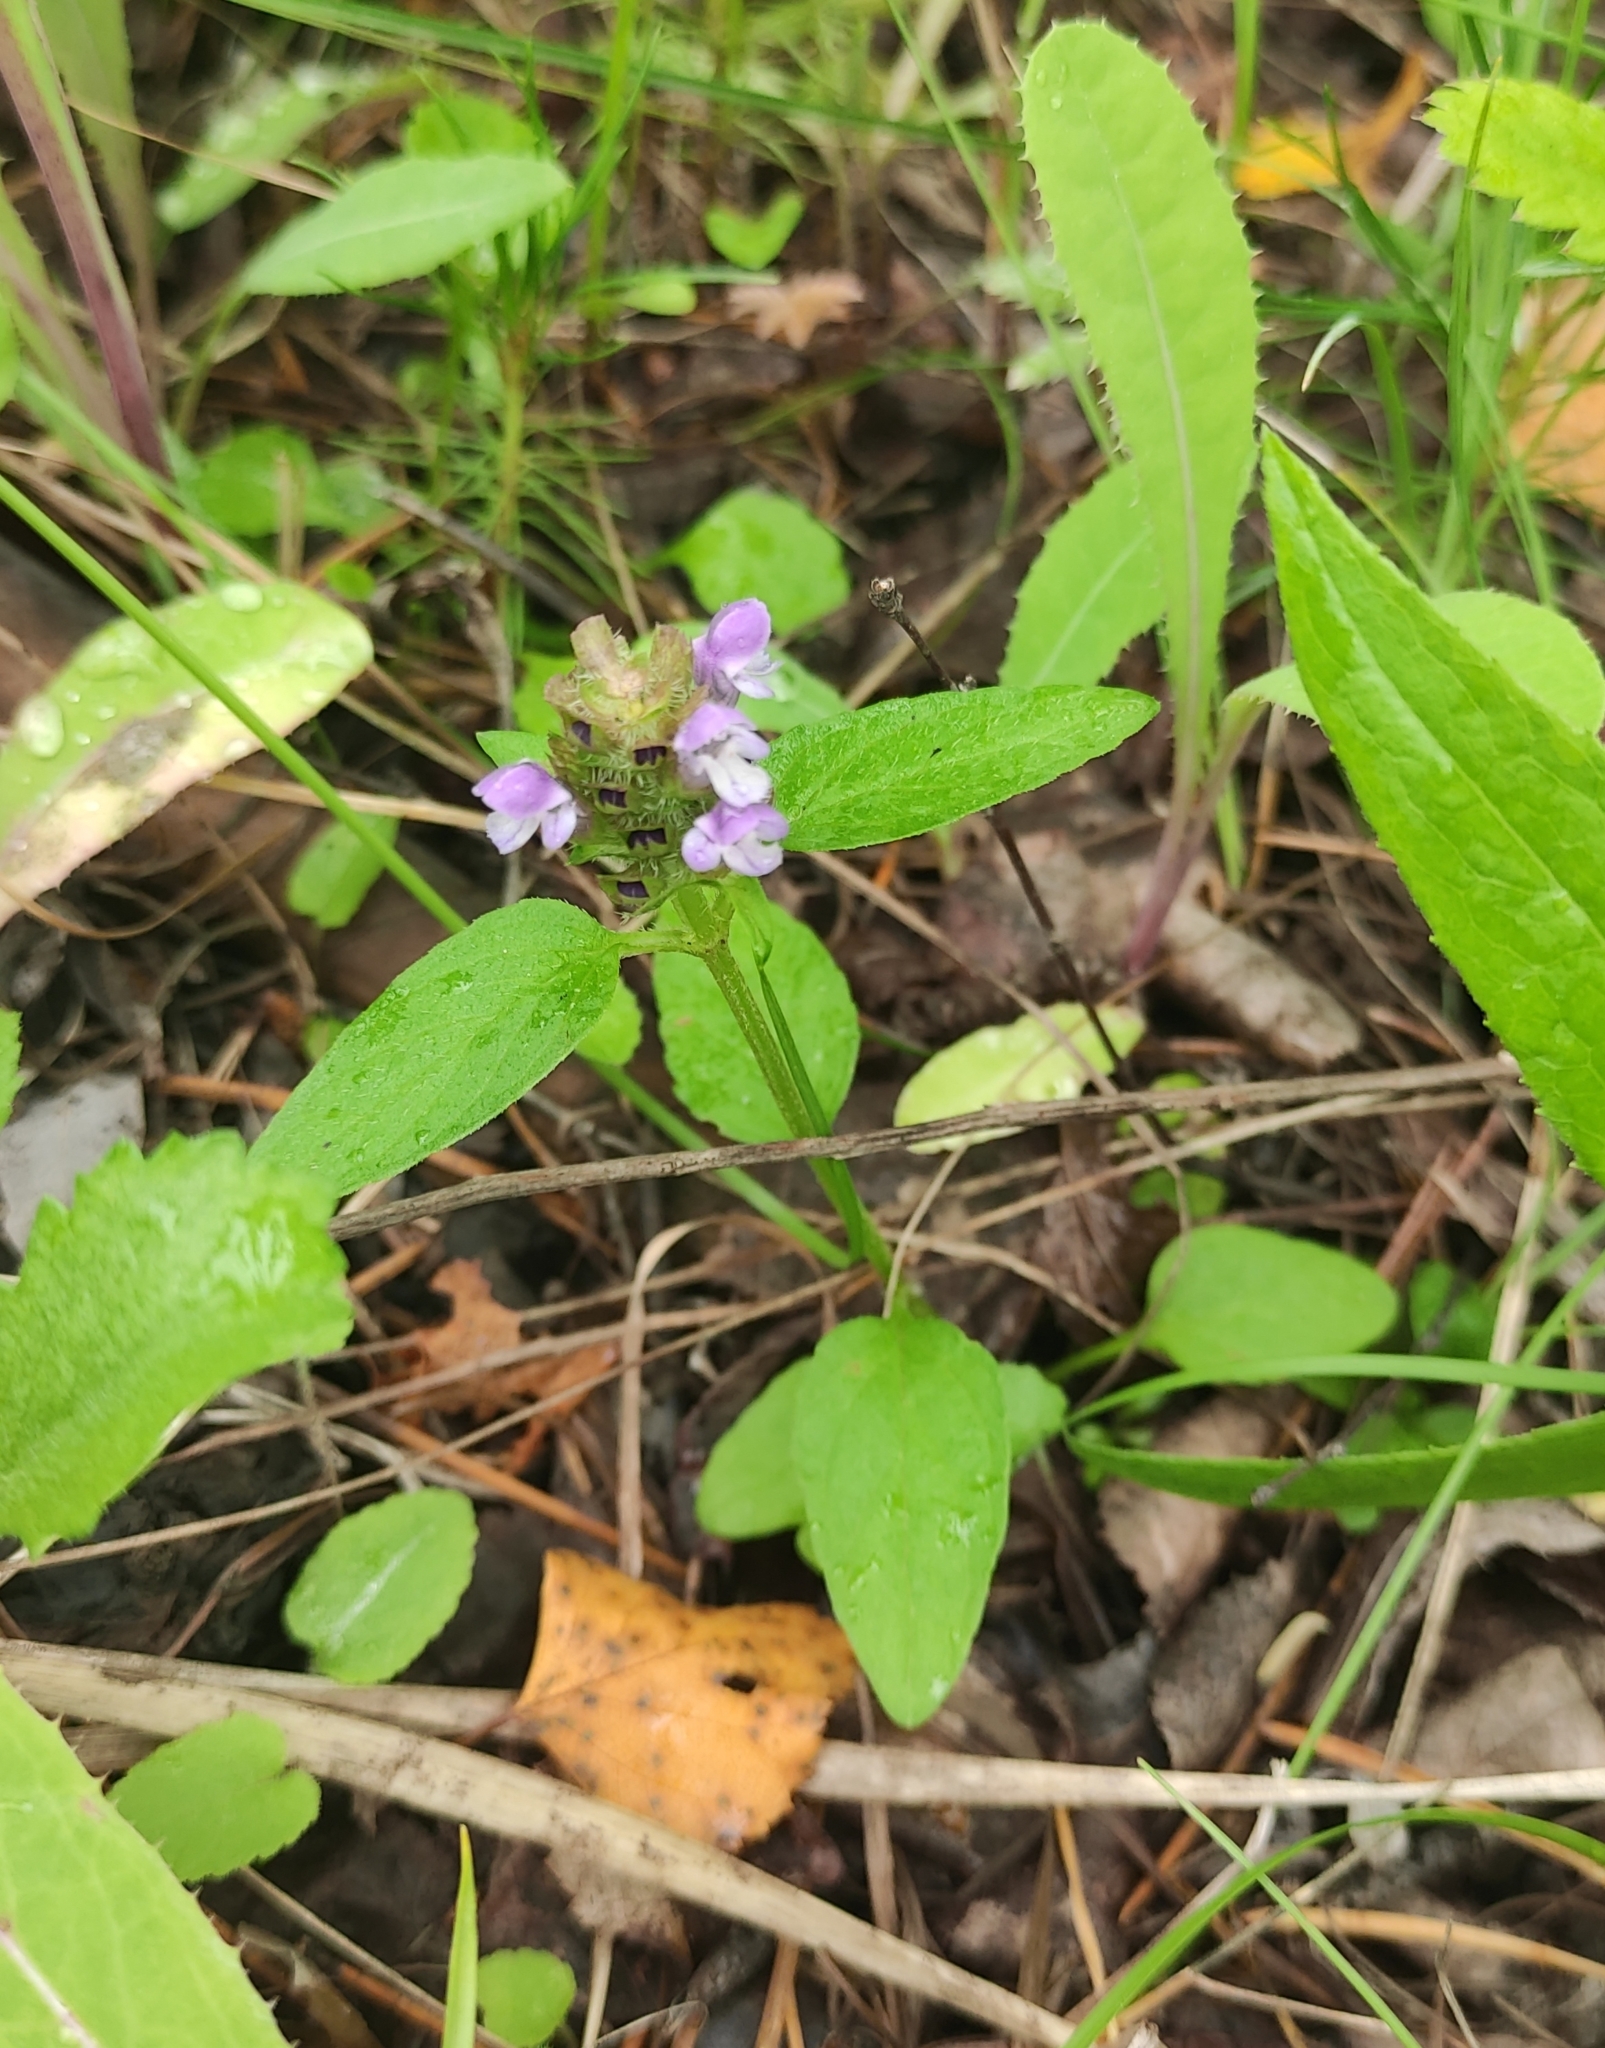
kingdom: Plantae
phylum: Tracheophyta
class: Magnoliopsida
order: Lamiales
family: Lamiaceae
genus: Prunella
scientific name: Prunella vulgaris
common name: Heal-all
